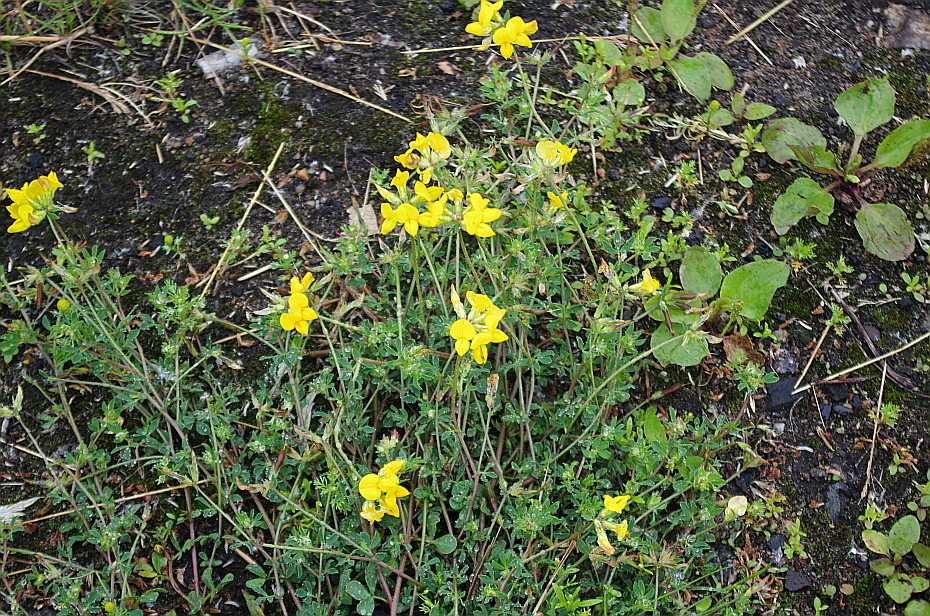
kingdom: Plantae
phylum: Tracheophyta
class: Magnoliopsida
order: Fabales
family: Fabaceae
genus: Lotus
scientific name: Lotus corniculatus
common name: Common bird's-foot-trefoil
